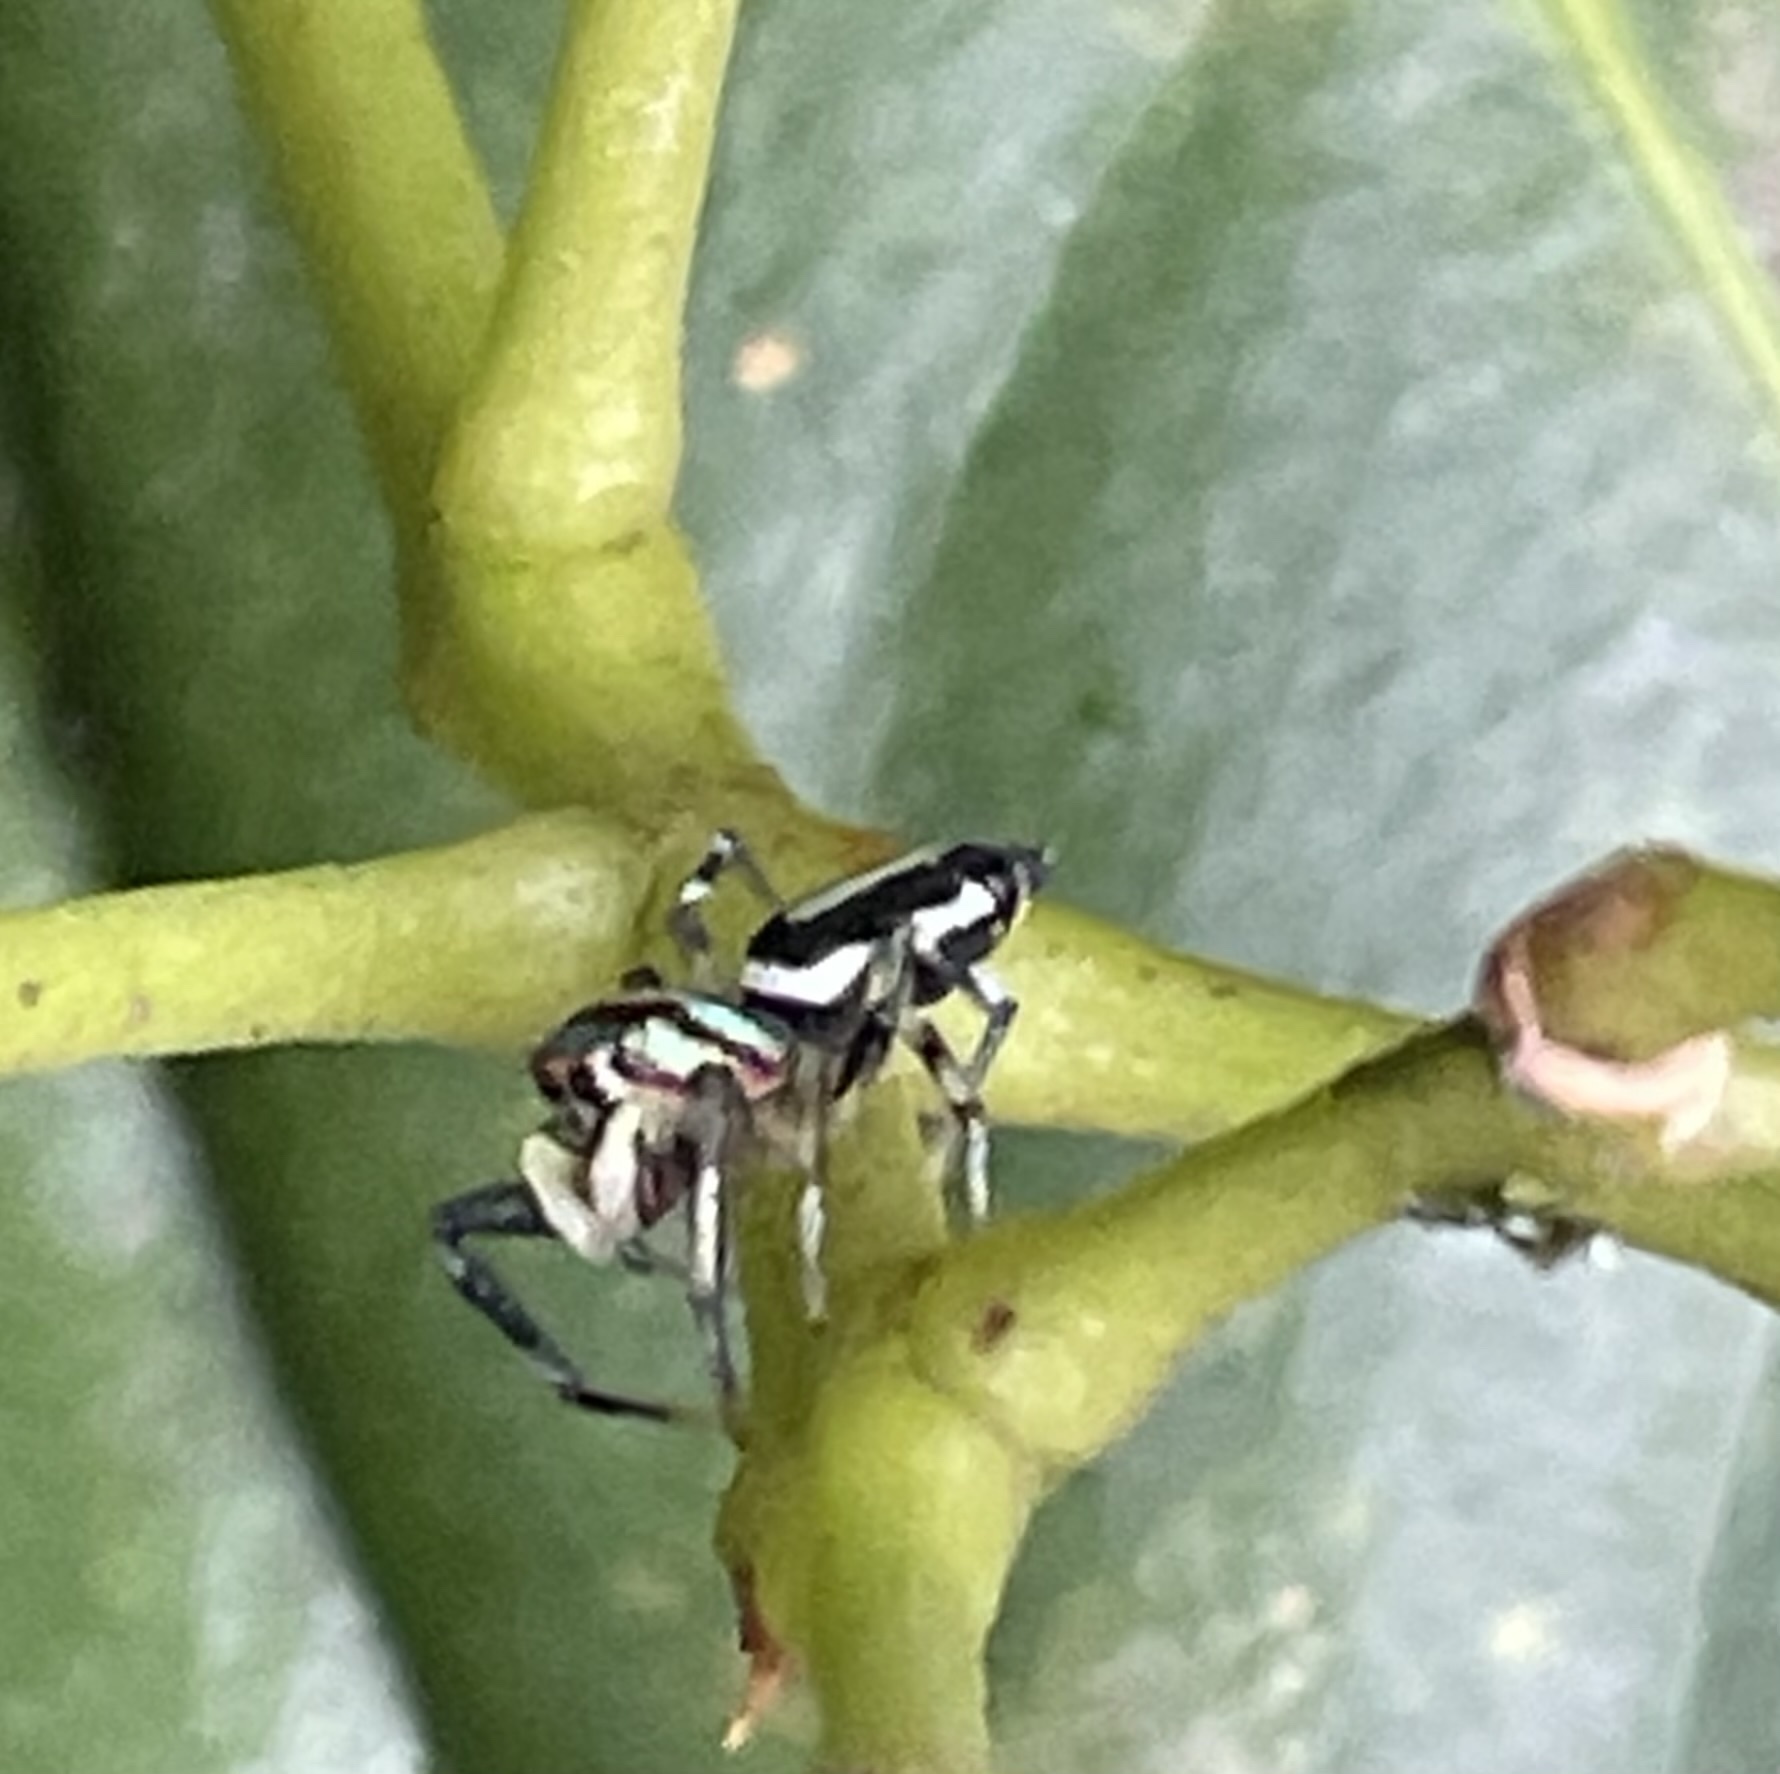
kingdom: Animalia
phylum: Arthropoda
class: Arachnida
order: Araneae
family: Salticidae
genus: Cosmophasis
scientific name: Cosmophasis micarioides
